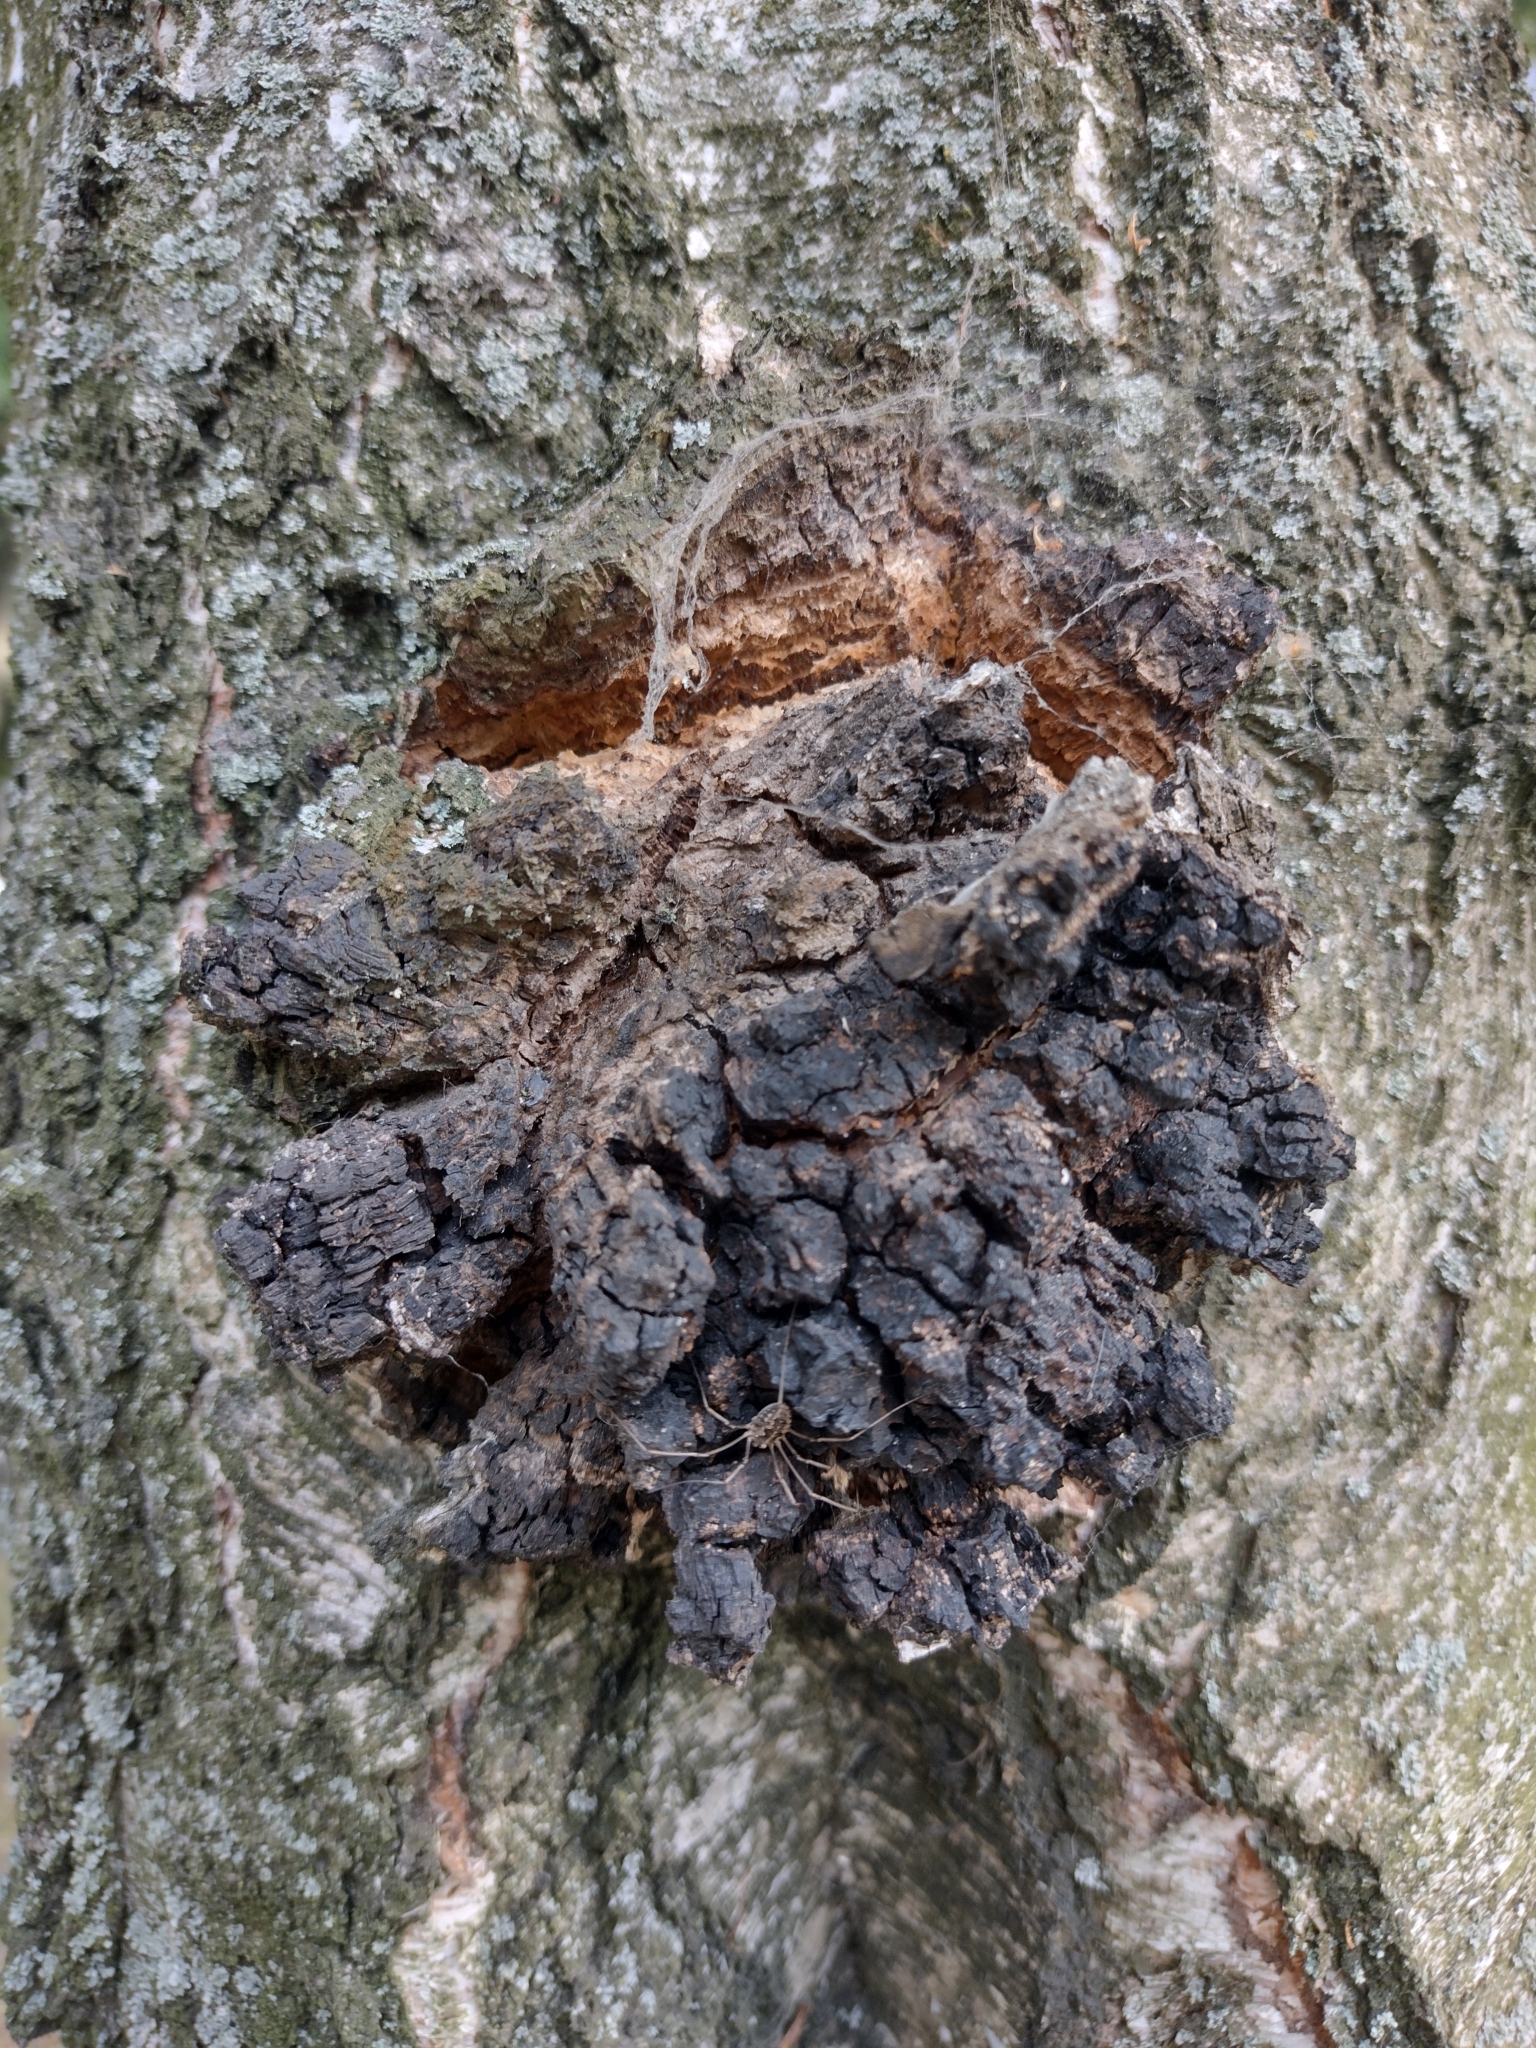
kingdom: Fungi
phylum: Basidiomycota
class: Agaricomycetes
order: Hymenochaetales
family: Hymenochaetaceae
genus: Inonotus
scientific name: Inonotus obliquus
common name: Chaga
